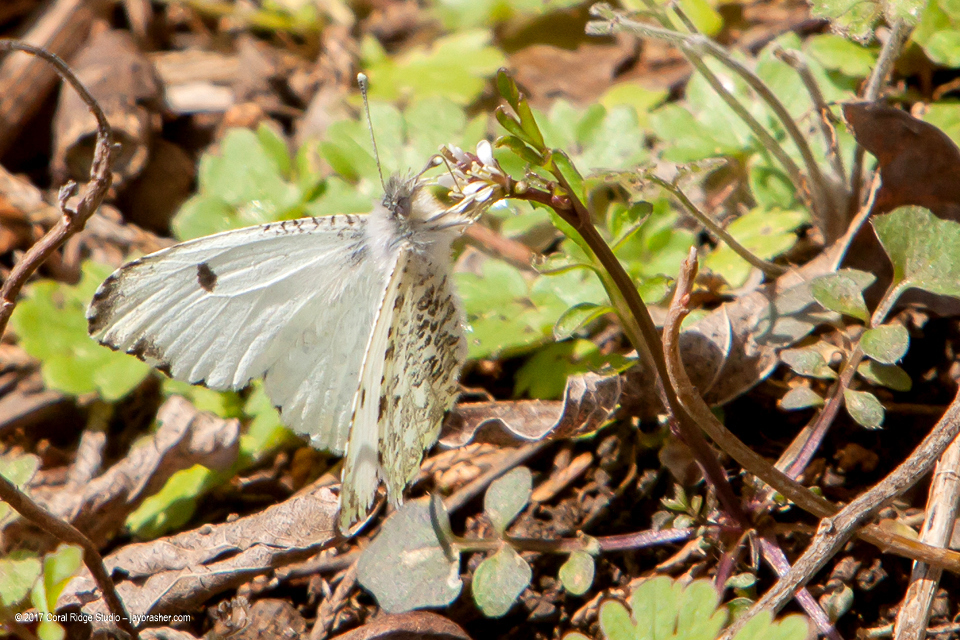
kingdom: Animalia
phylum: Arthropoda
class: Insecta
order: Lepidoptera
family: Pieridae
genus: Anthocharis
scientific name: Anthocharis midea
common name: Falcate orangetip
